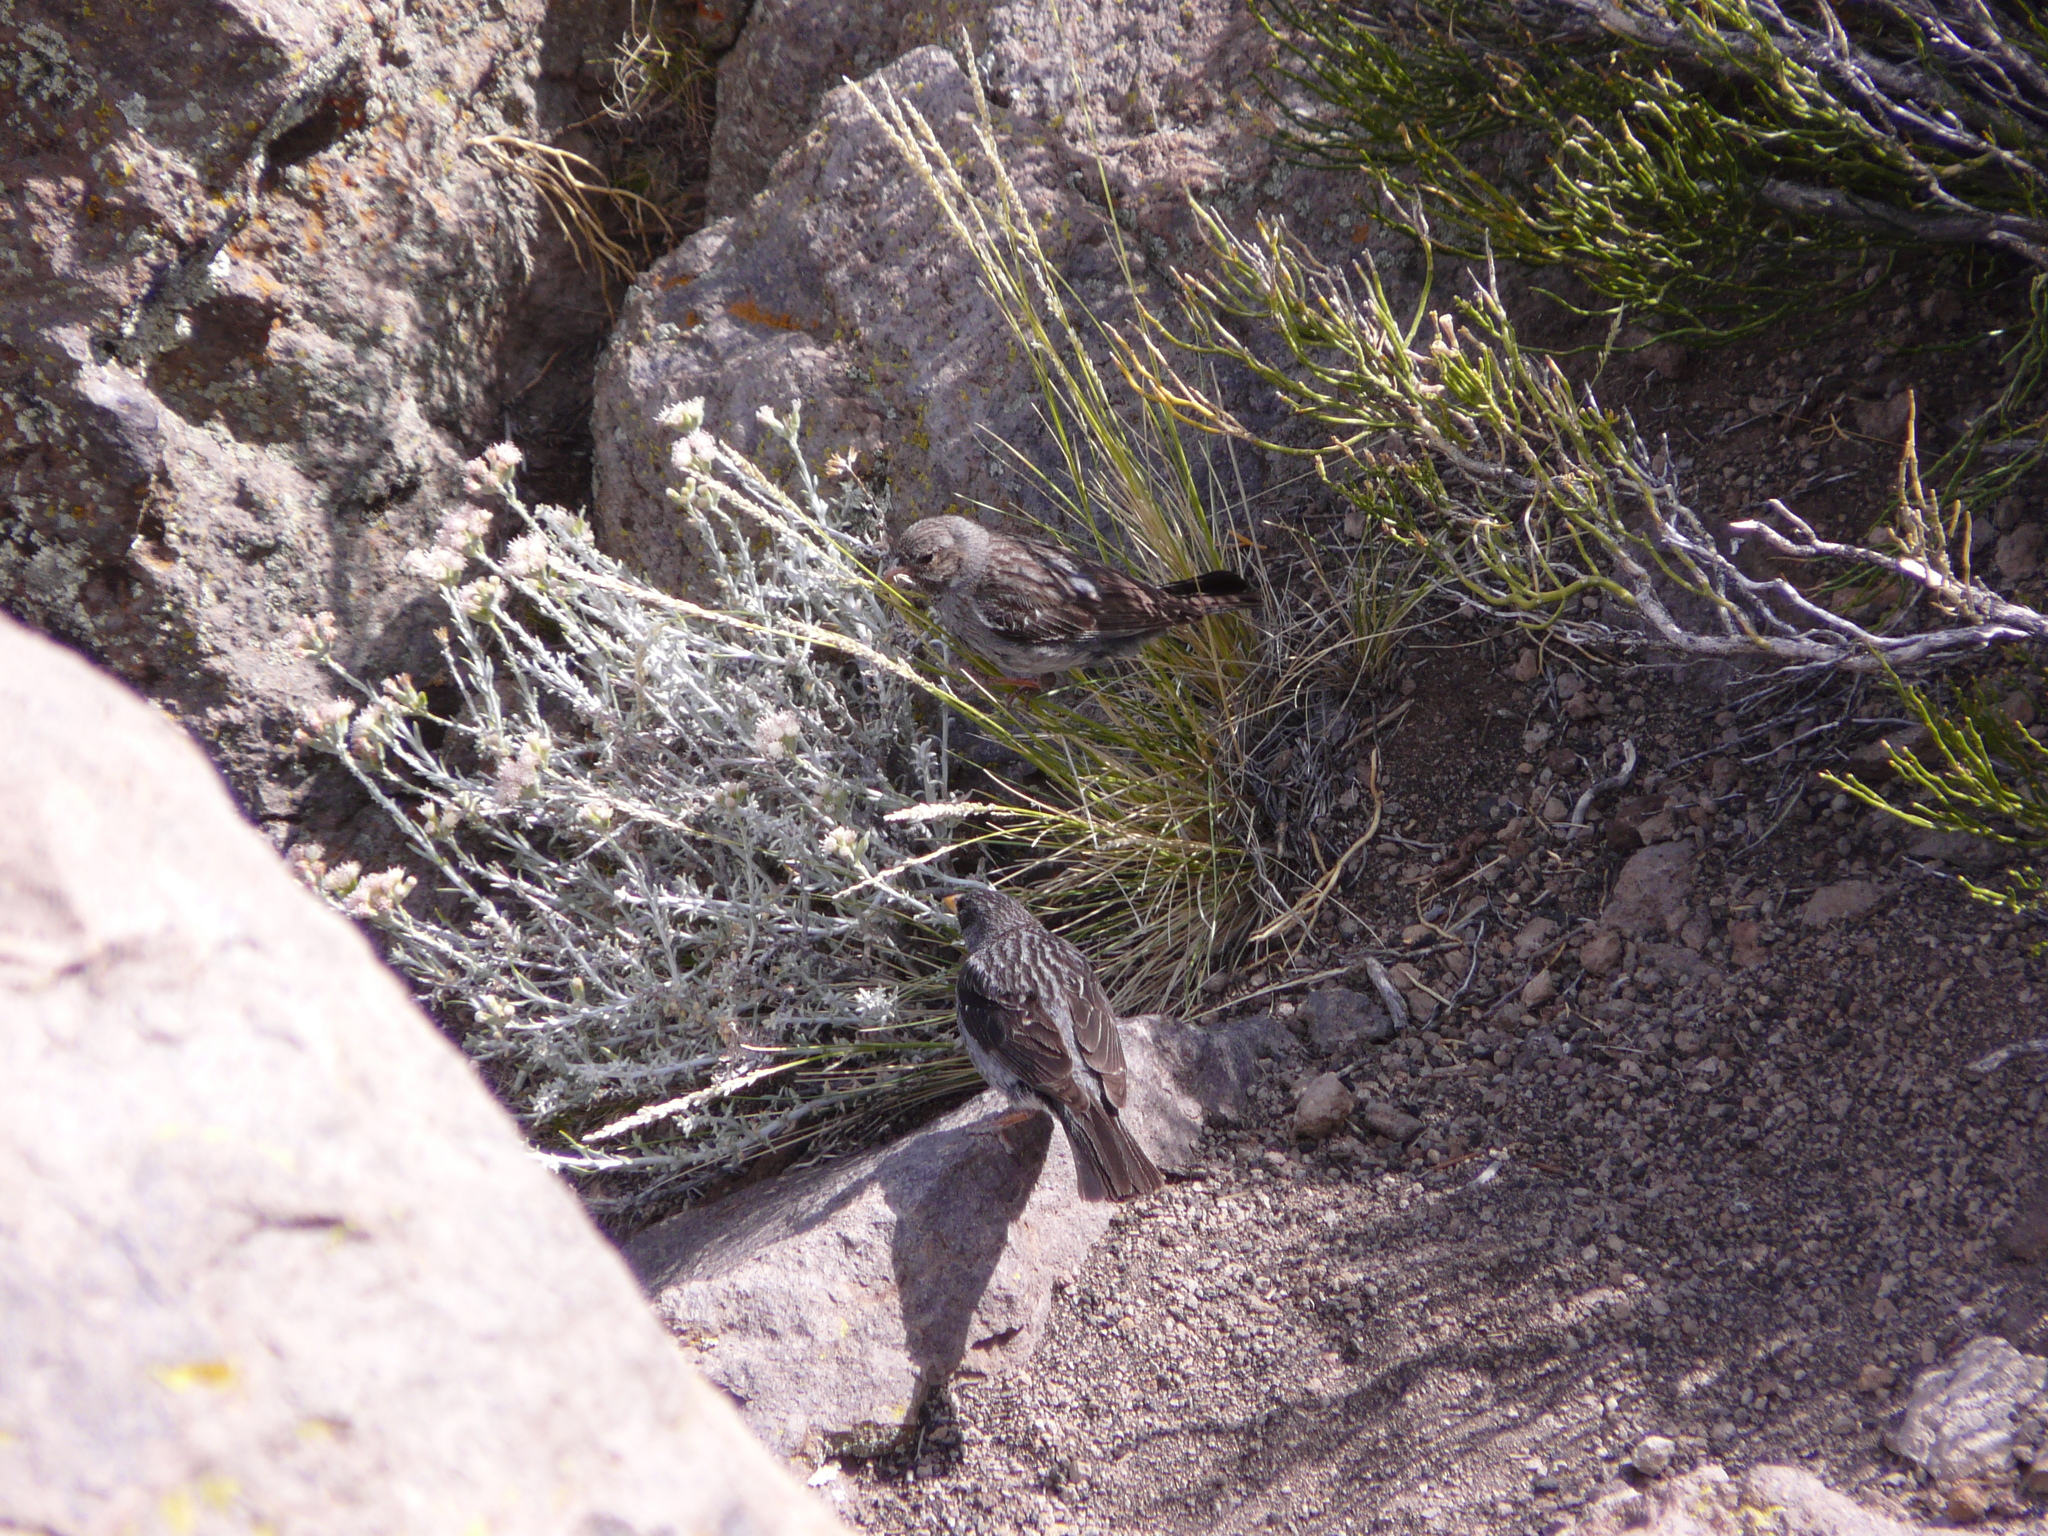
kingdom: Animalia
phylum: Chordata
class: Aves
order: Passeriformes
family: Thraupidae
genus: Porphyrospiza
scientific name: Porphyrospiza carbonaria
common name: Carbon finch
